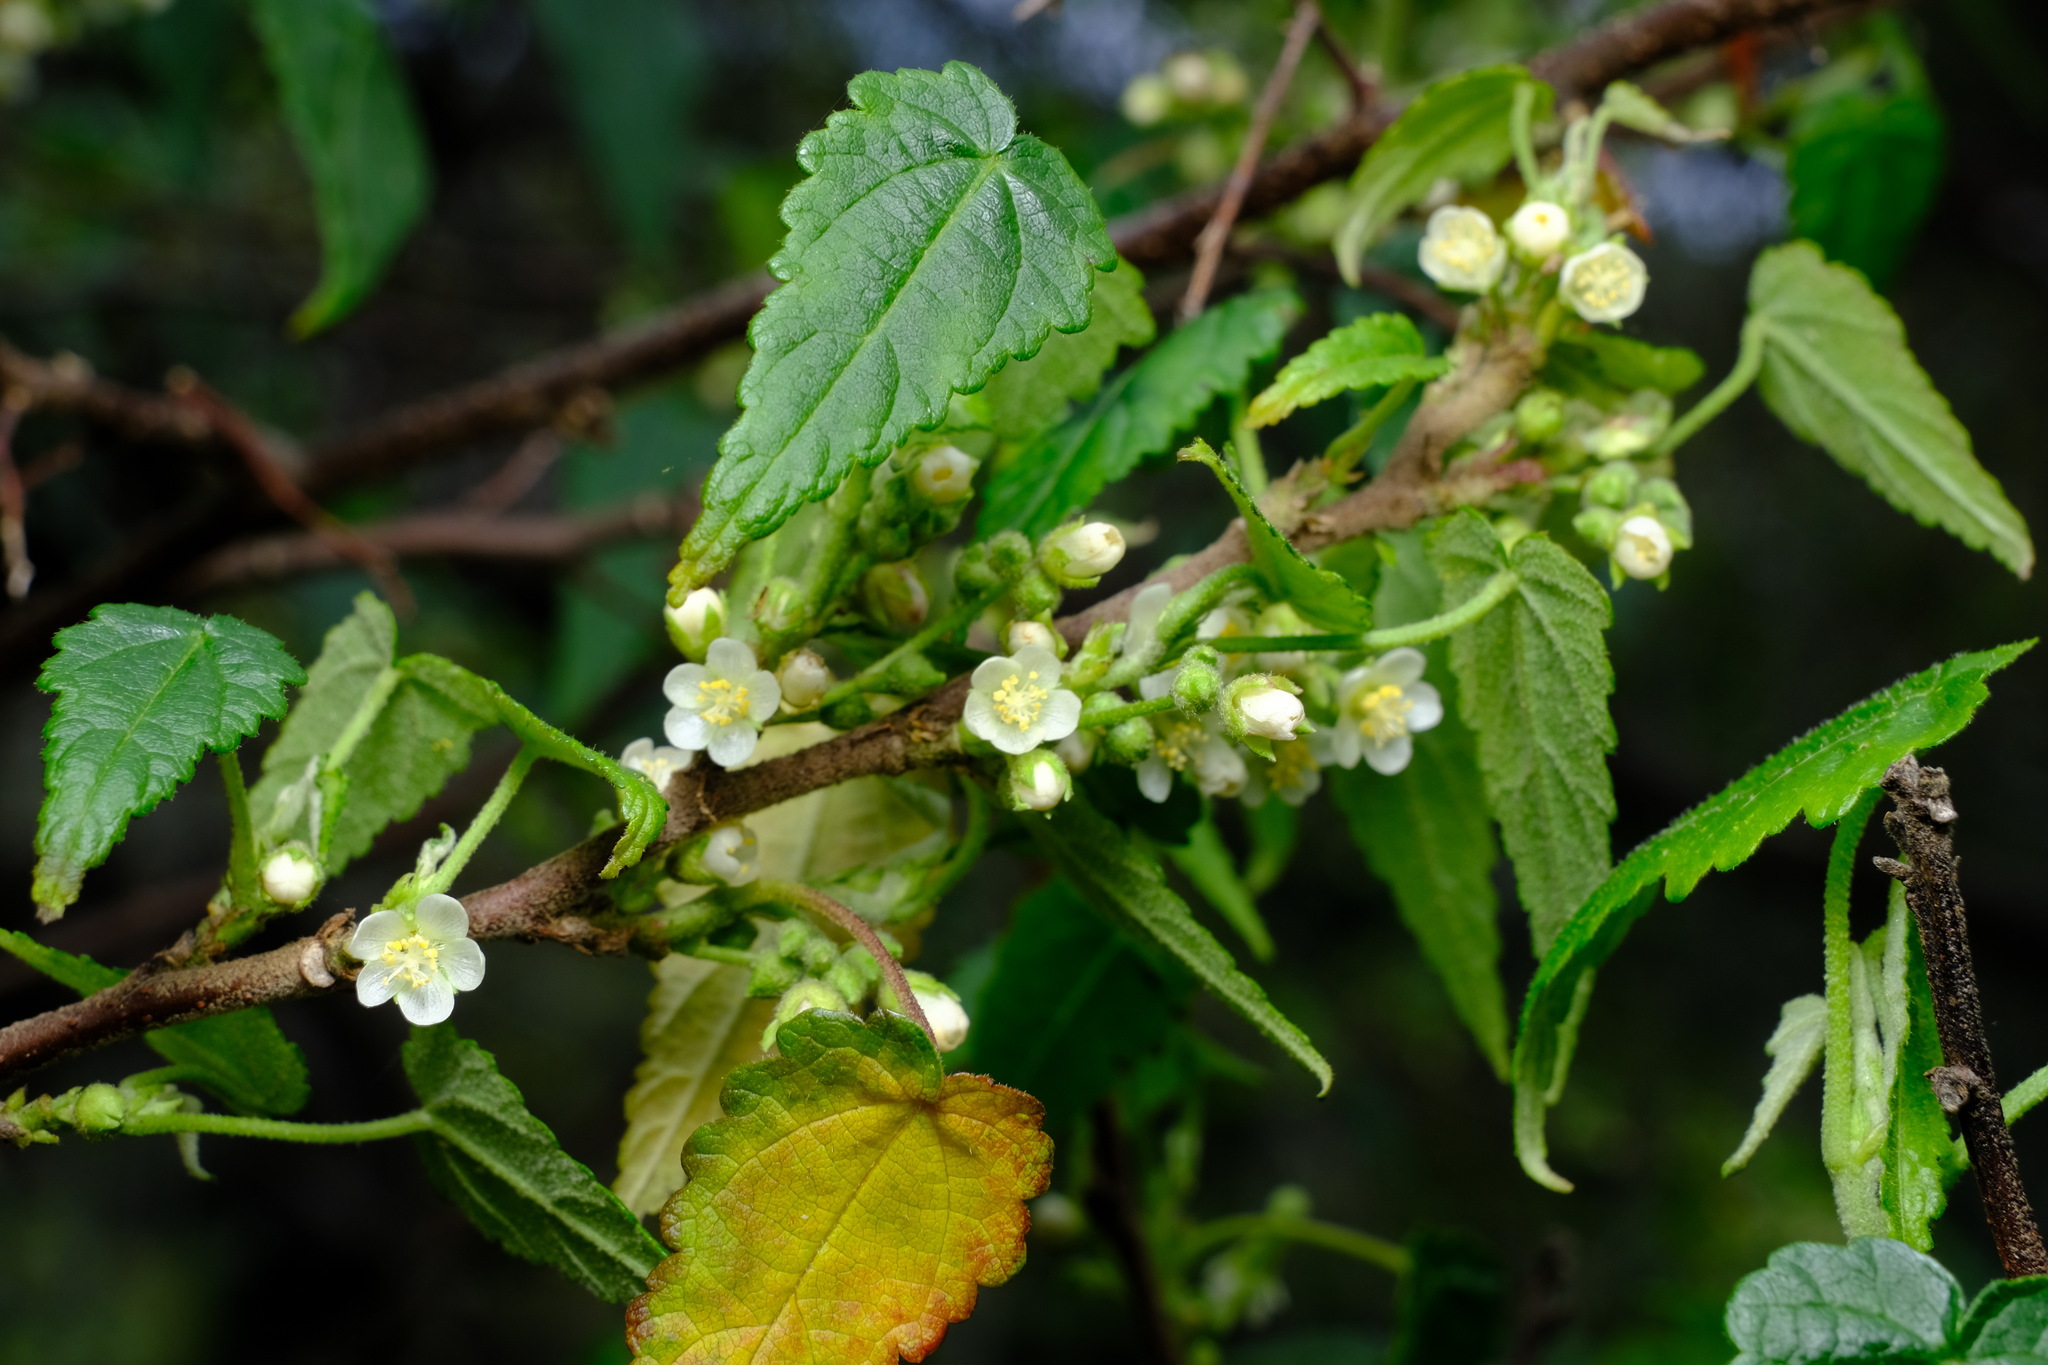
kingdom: Plantae
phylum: Tracheophyta
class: Magnoliopsida
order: Malvales
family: Malvaceae
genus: Gynatrix
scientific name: Gynatrix pulchella
